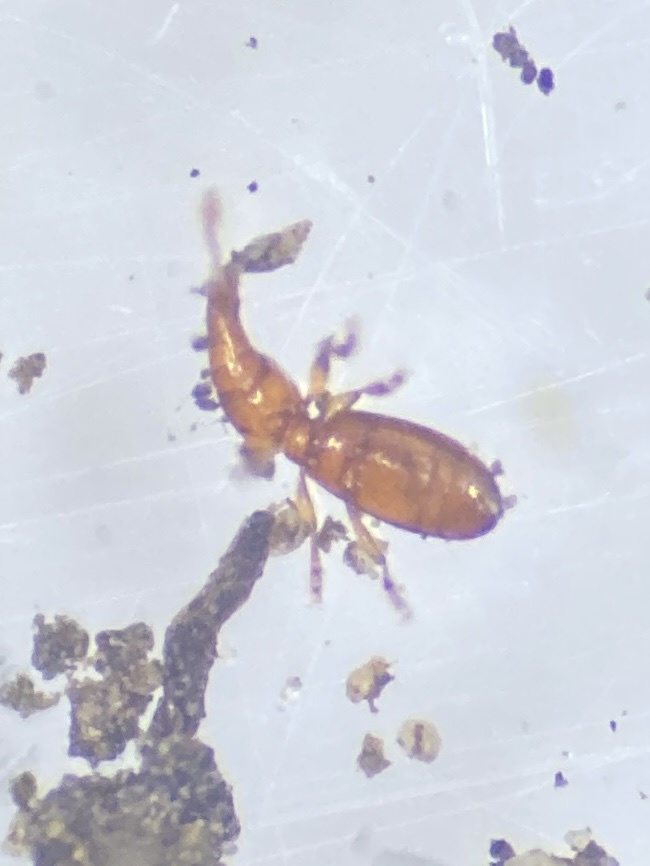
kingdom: Animalia
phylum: Arthropoda
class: Insecta
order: Coleoptera
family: Brachyceridae
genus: Myrtonymus
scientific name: Myrtonymus zelandicus
